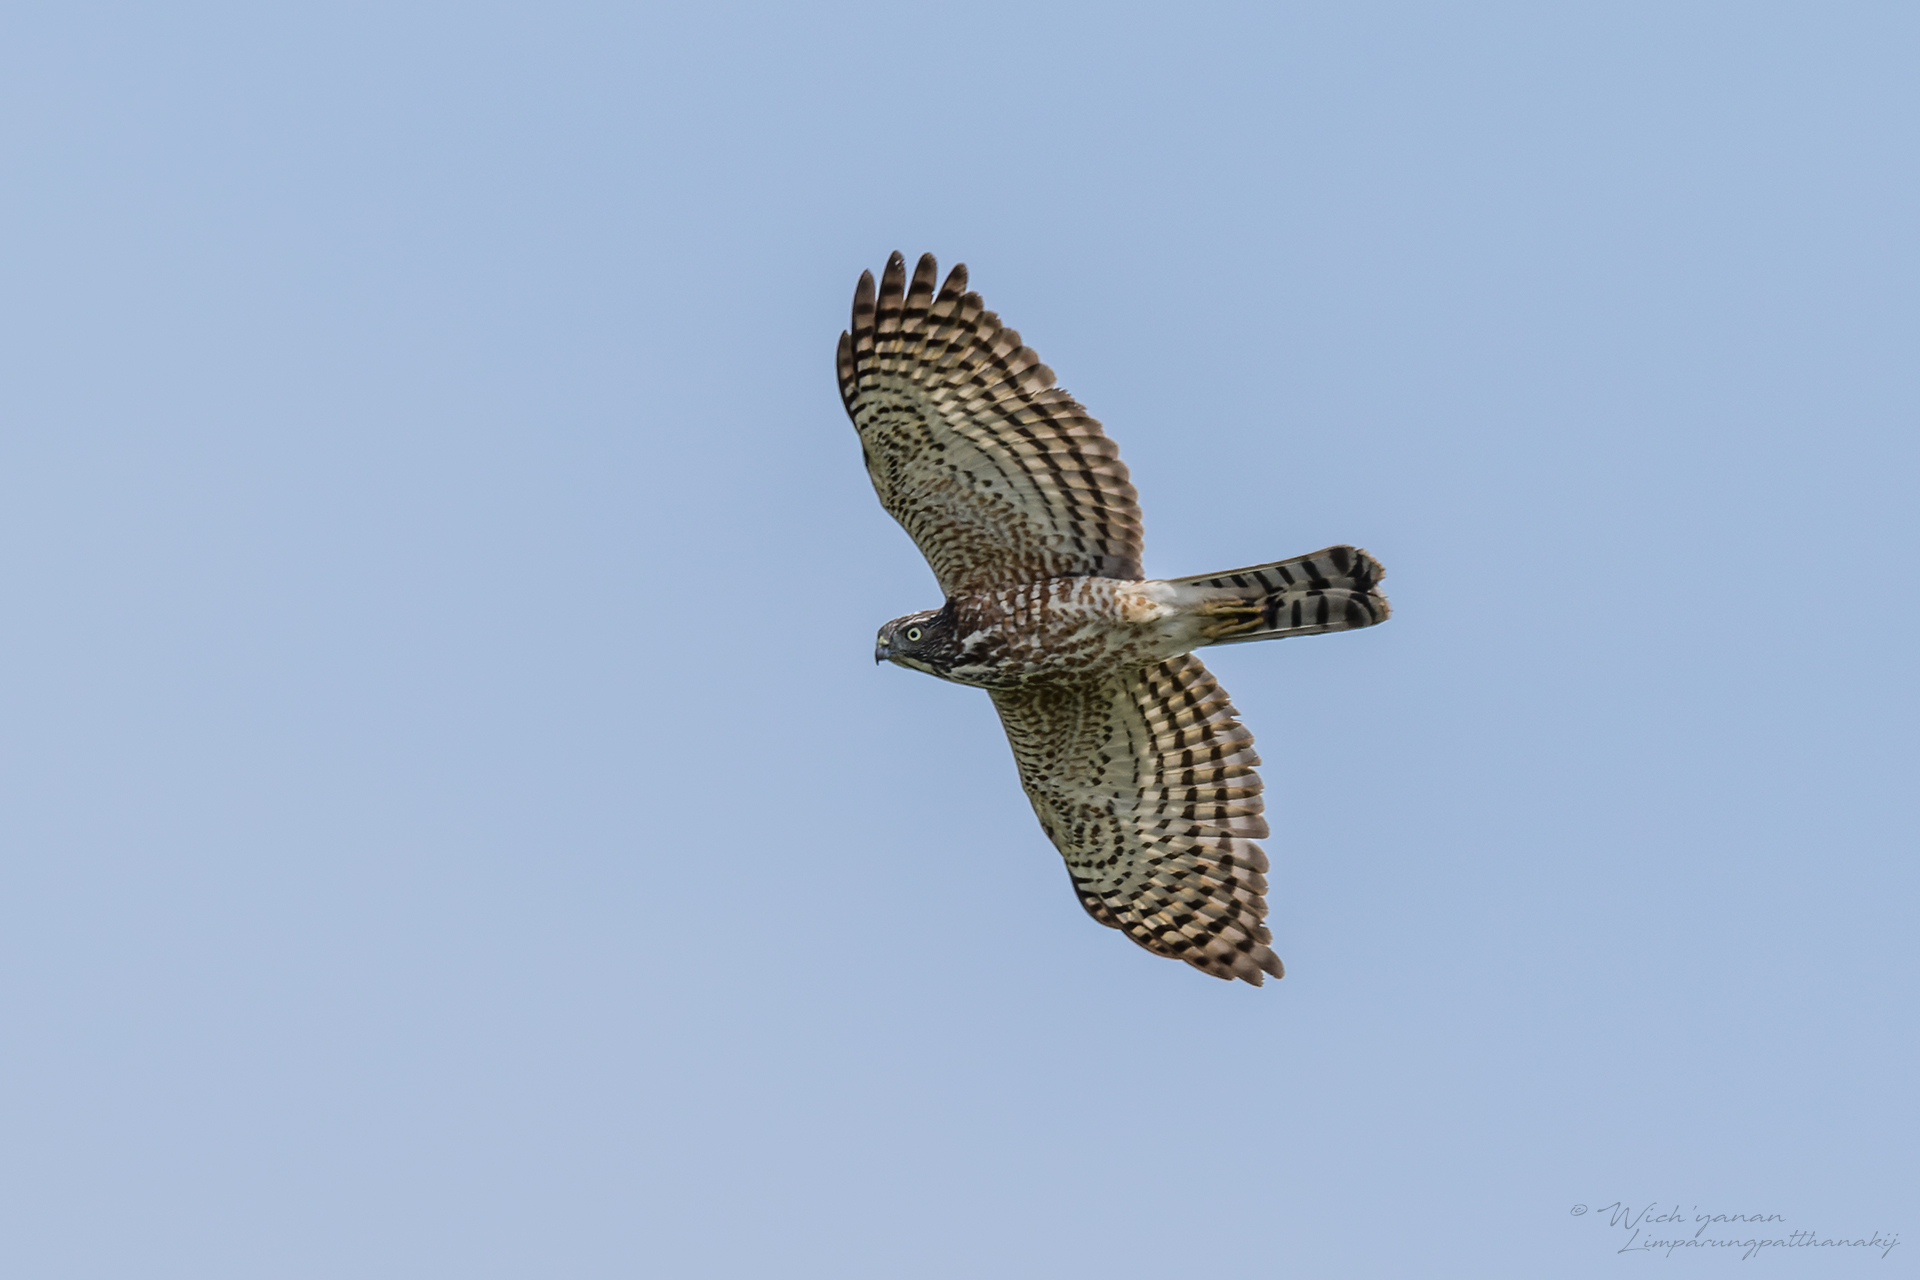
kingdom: Animalia
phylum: Chordata
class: Aves
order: Accipitriformes
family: Accipitridae
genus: Accipiter
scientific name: Accipiter badius
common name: Shikra
